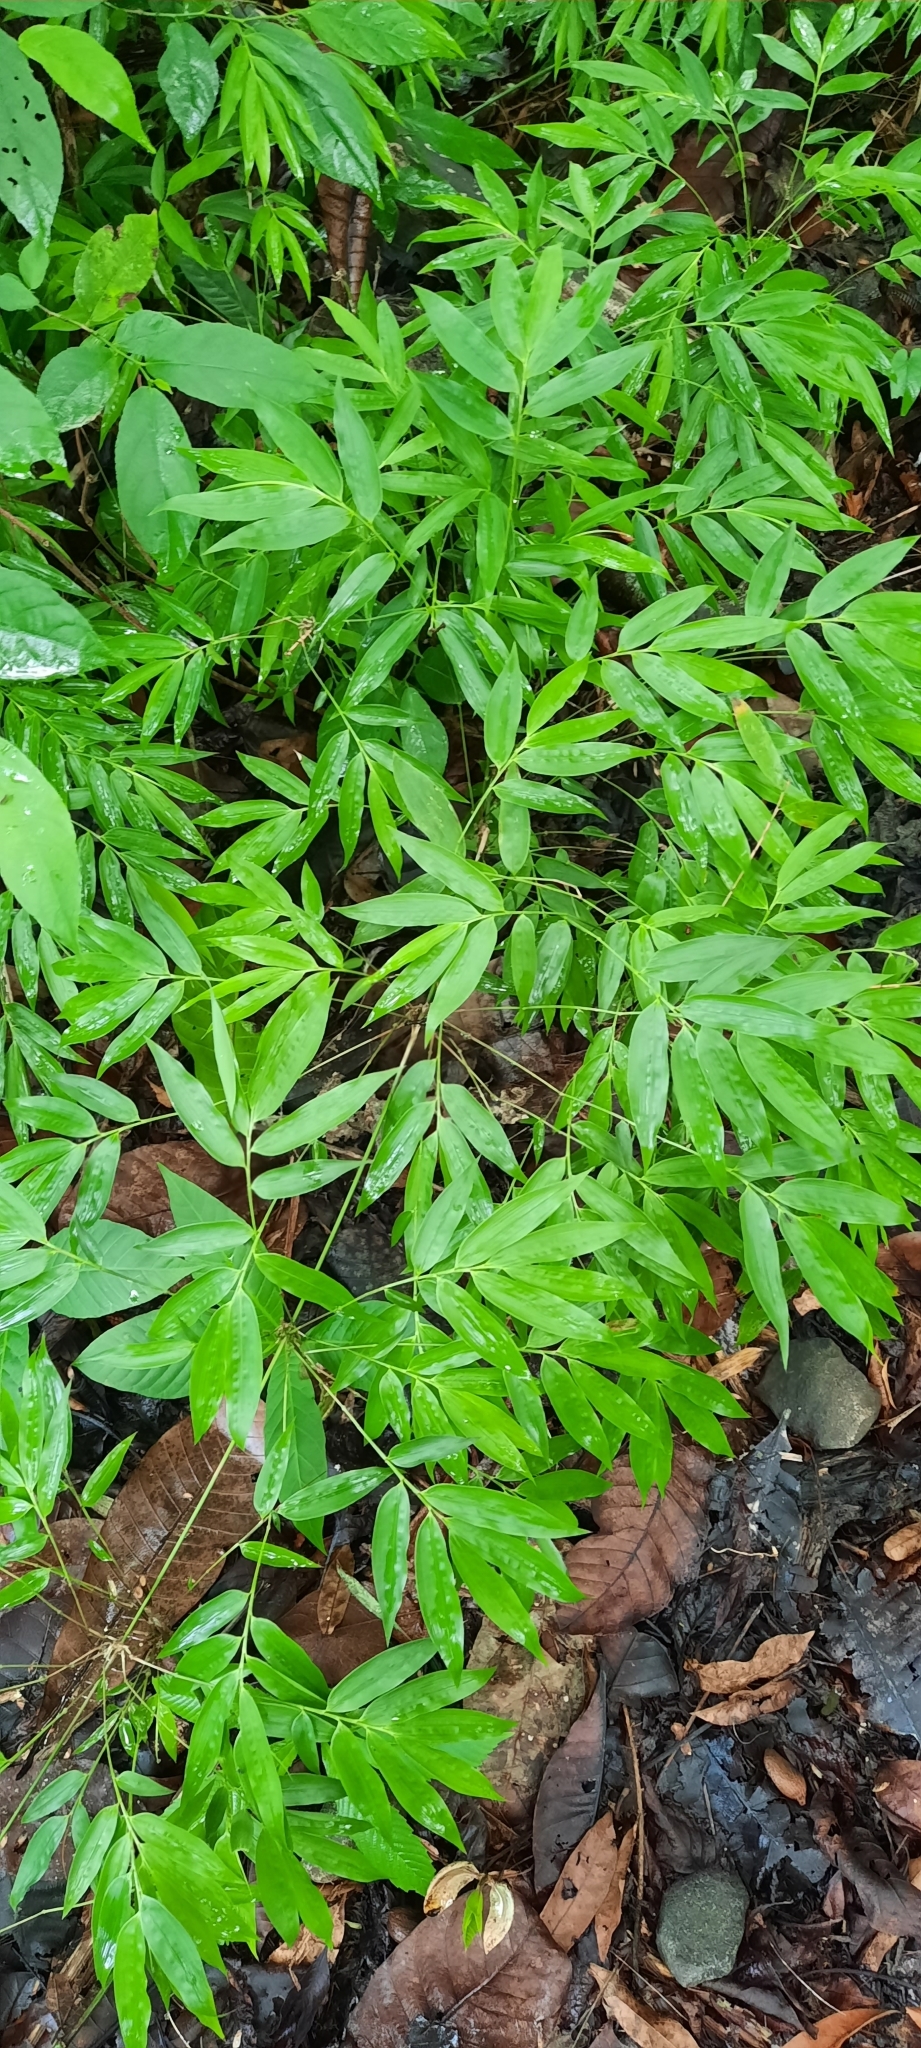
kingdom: Plantae
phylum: Tracheophyta
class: Liliopsida
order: Poales
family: Poaceae
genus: Oplismenus
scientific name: Oplismenus undulatifolius
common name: Wavyleaf basketgrass
